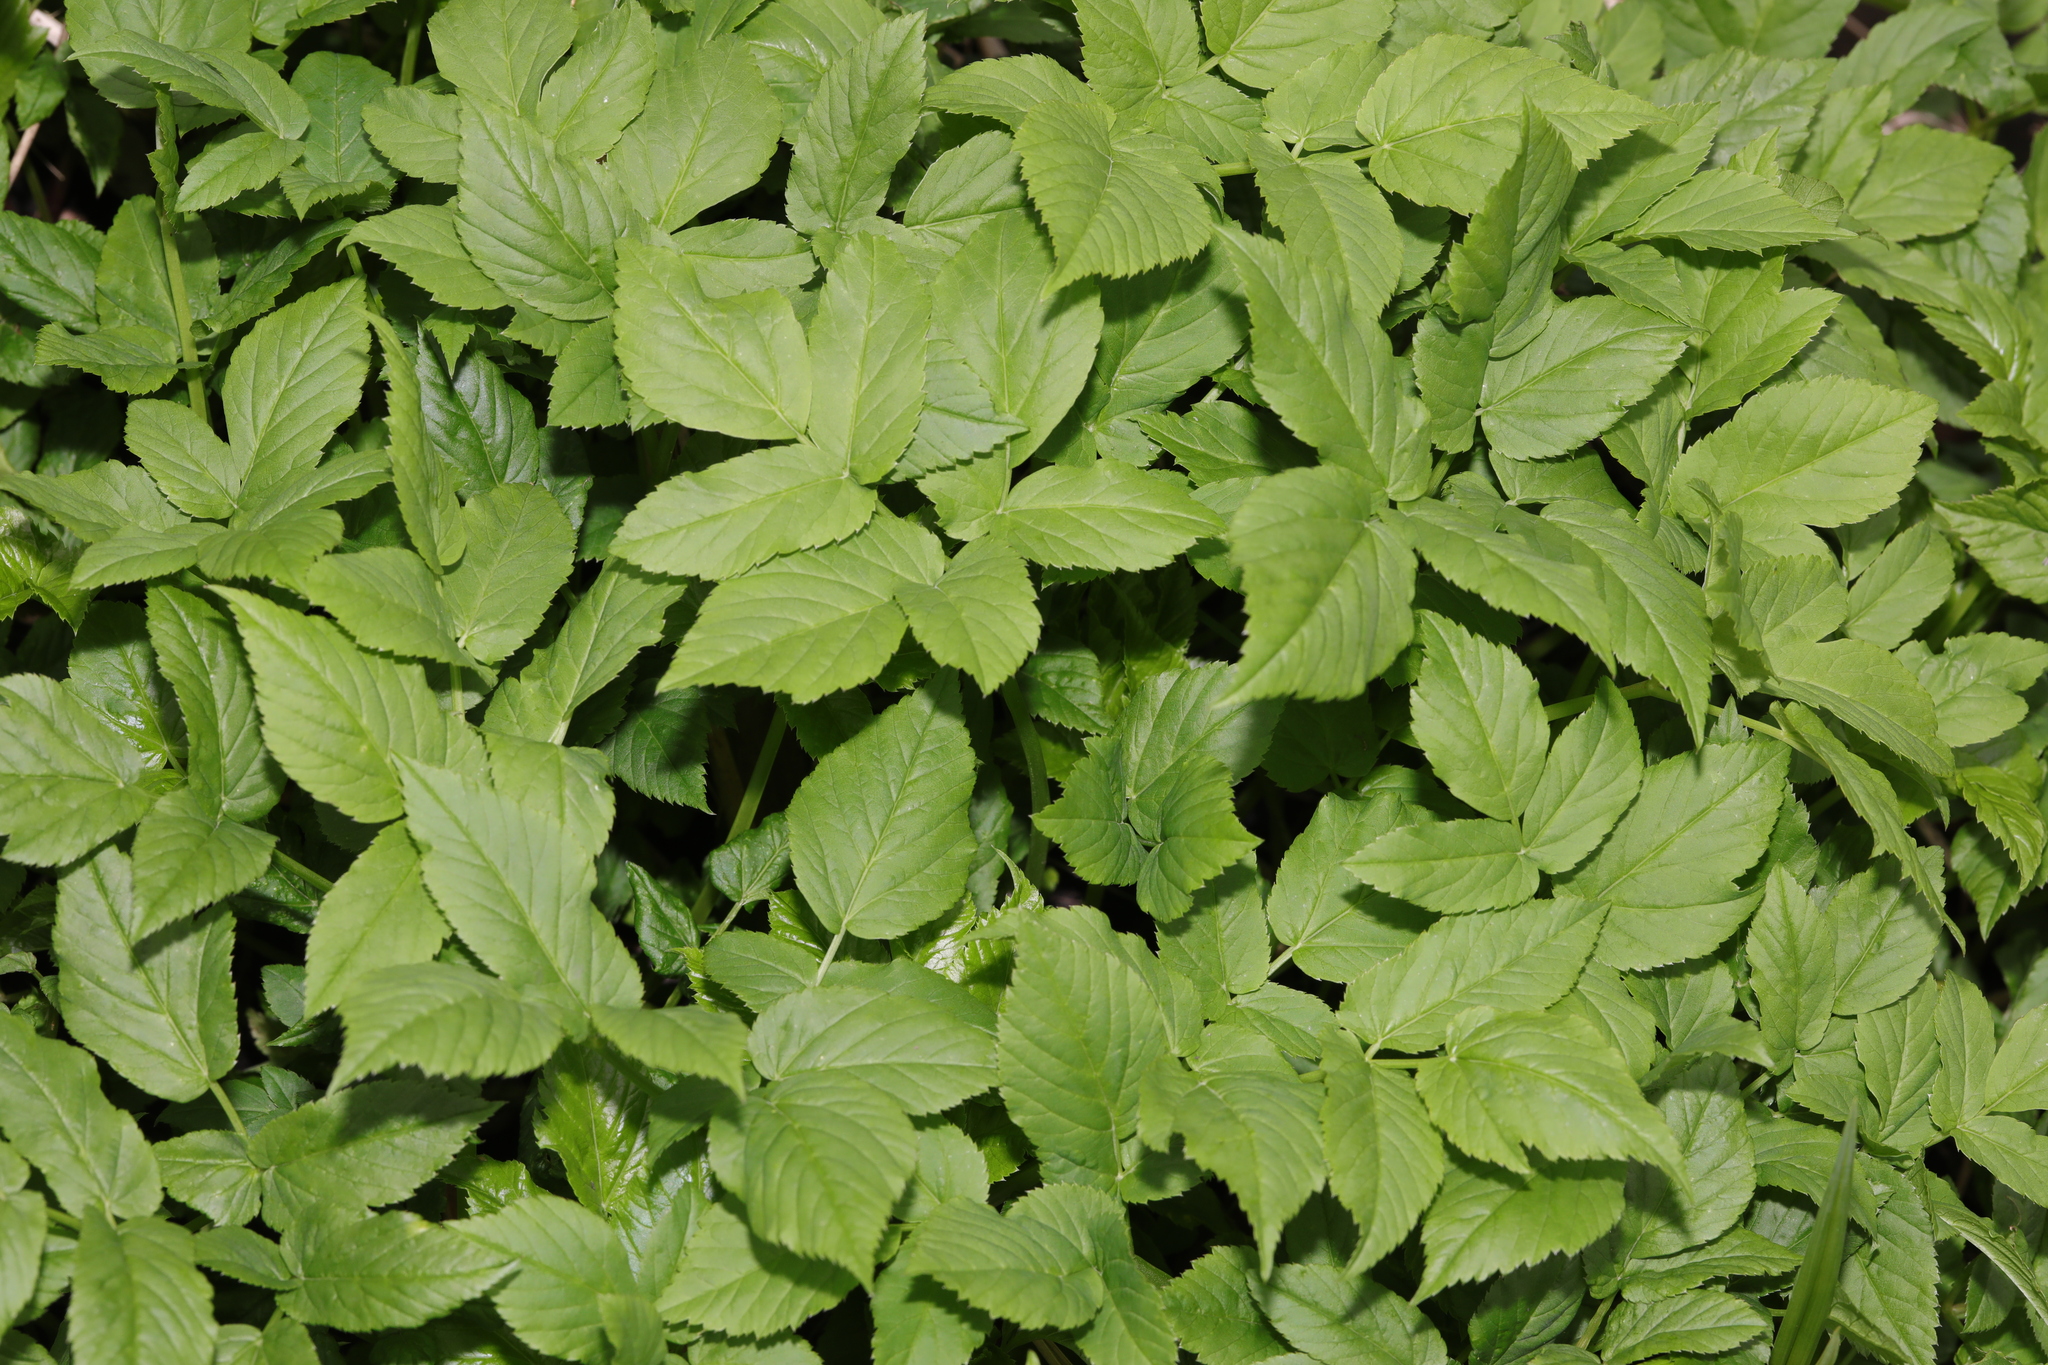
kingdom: Plantae
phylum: Tracheophyta
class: Magnoliopsida
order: Apiales
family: Apiaceae
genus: Aegopodium
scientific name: Aegopodium podagraria
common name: Ground-elder
